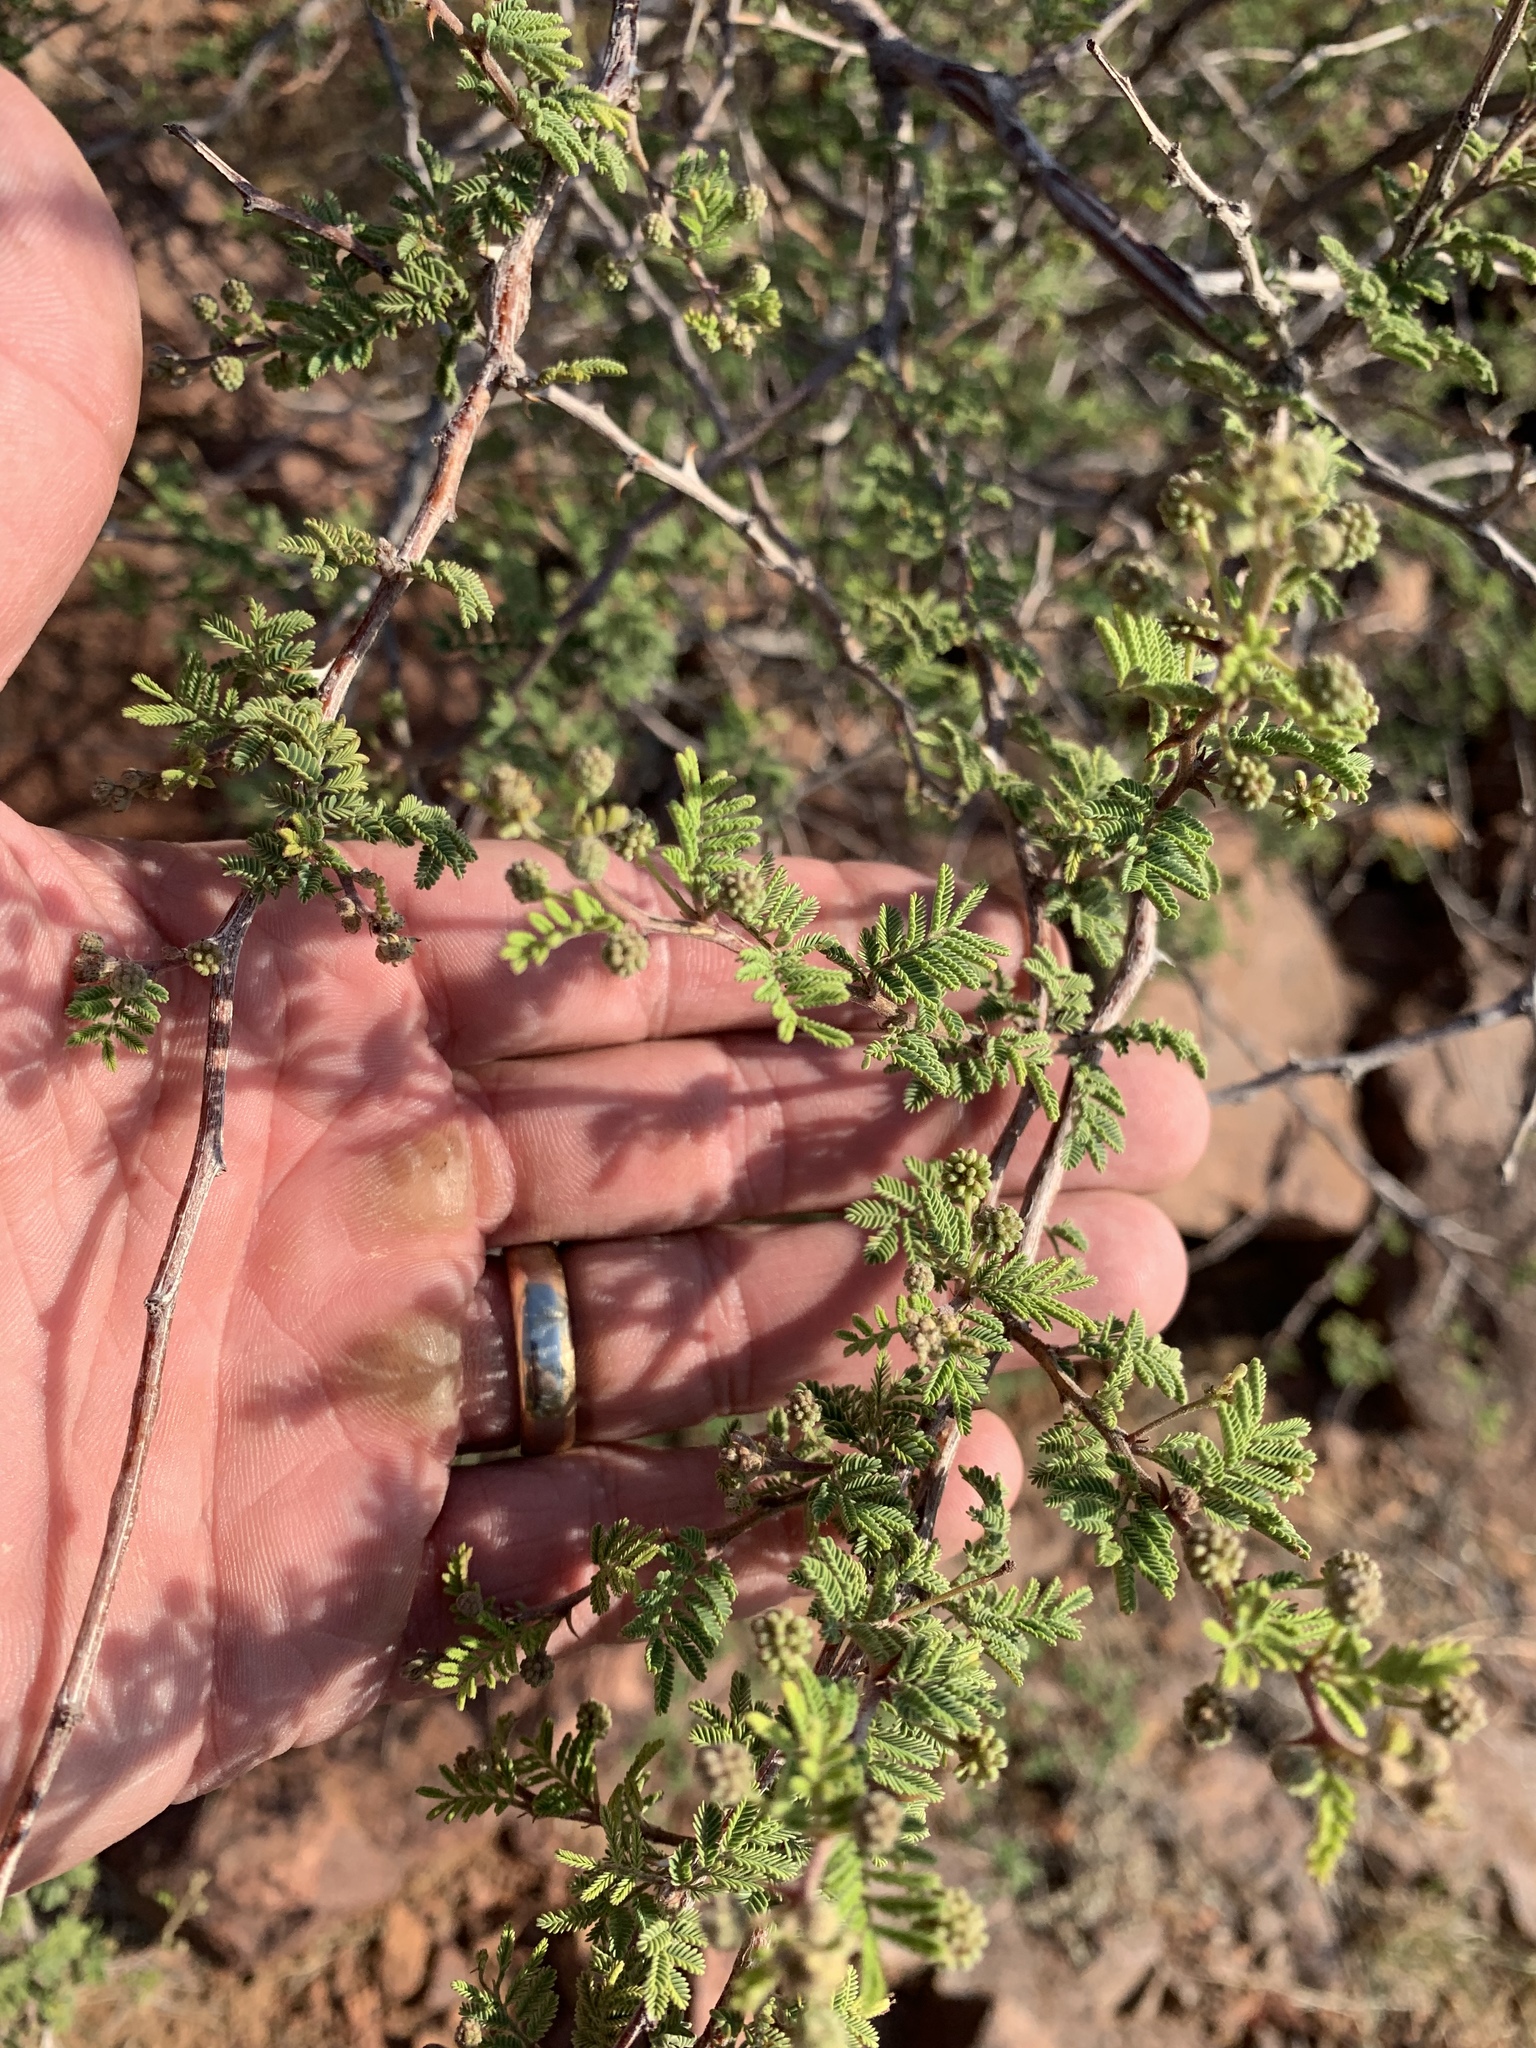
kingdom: Plantae
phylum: Tracheophyta
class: Magnoliopsida
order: Fabales
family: Fabaceae
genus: Mimosa
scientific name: Mimosa aculeaticarpa
